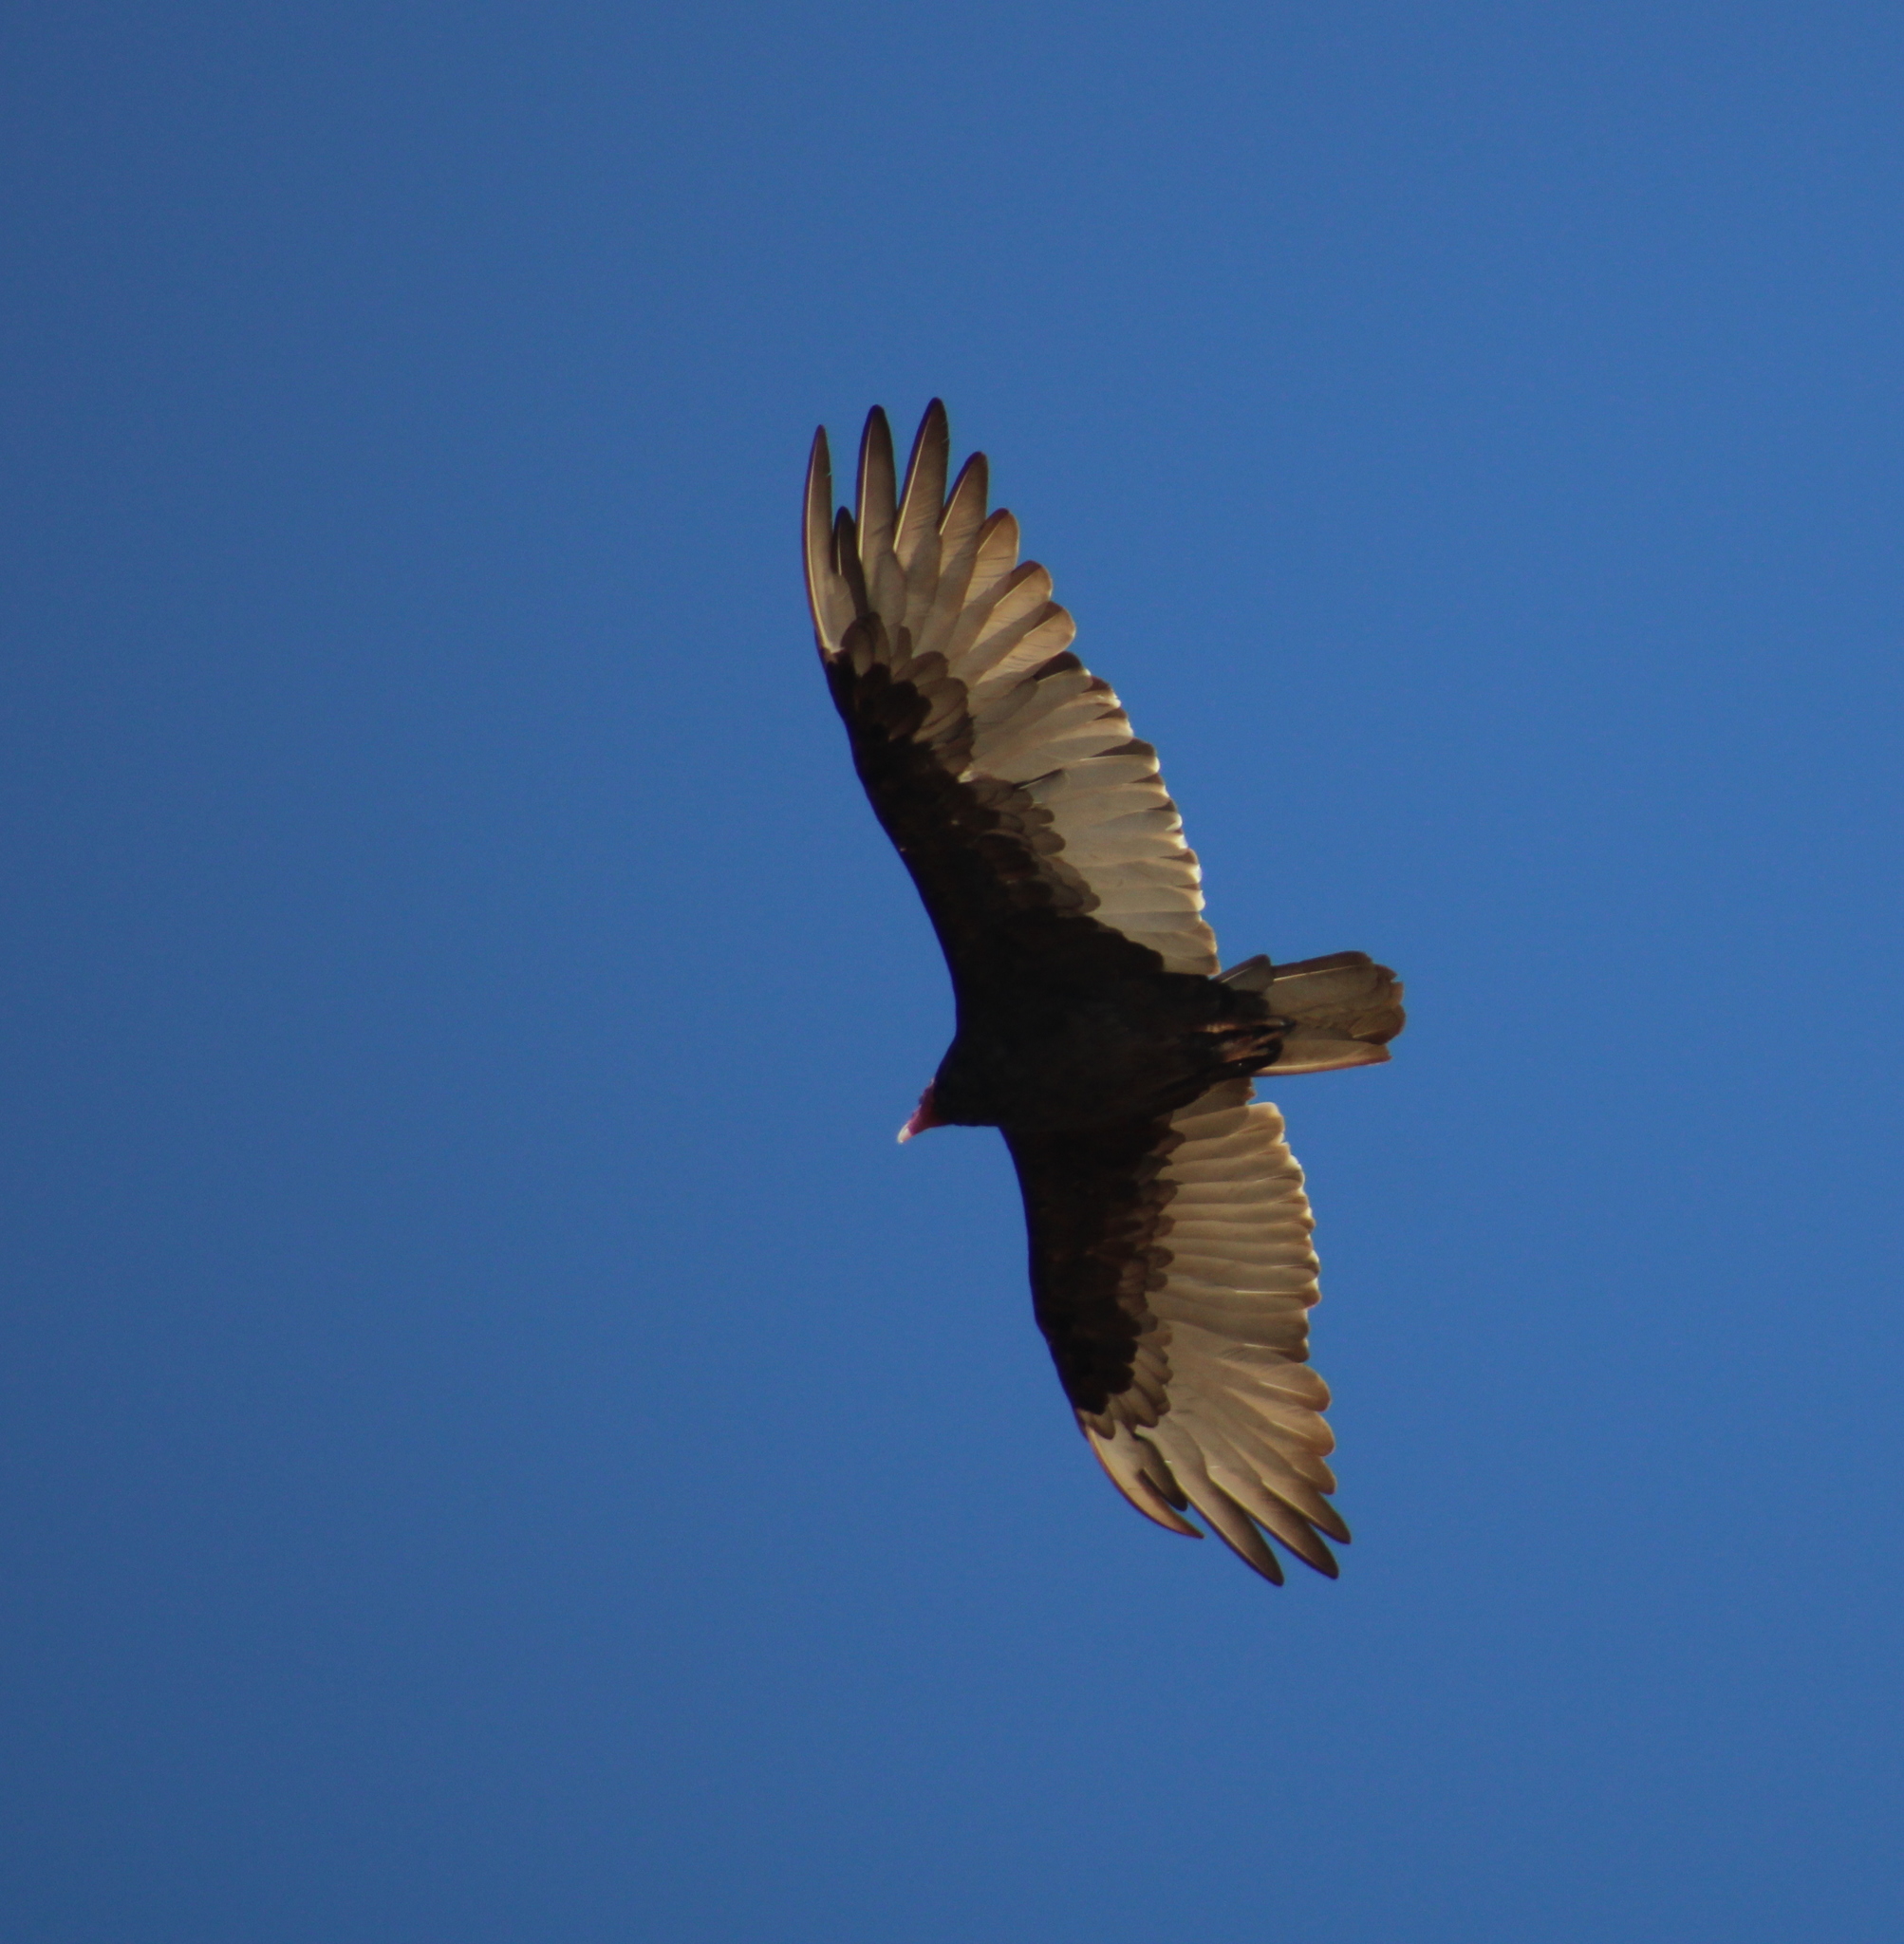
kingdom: Animalia
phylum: Chordata
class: Aves
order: Accipitriformes
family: Cathartidae
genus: Cathartes
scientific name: Cathartes aura
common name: Turkey vulture
